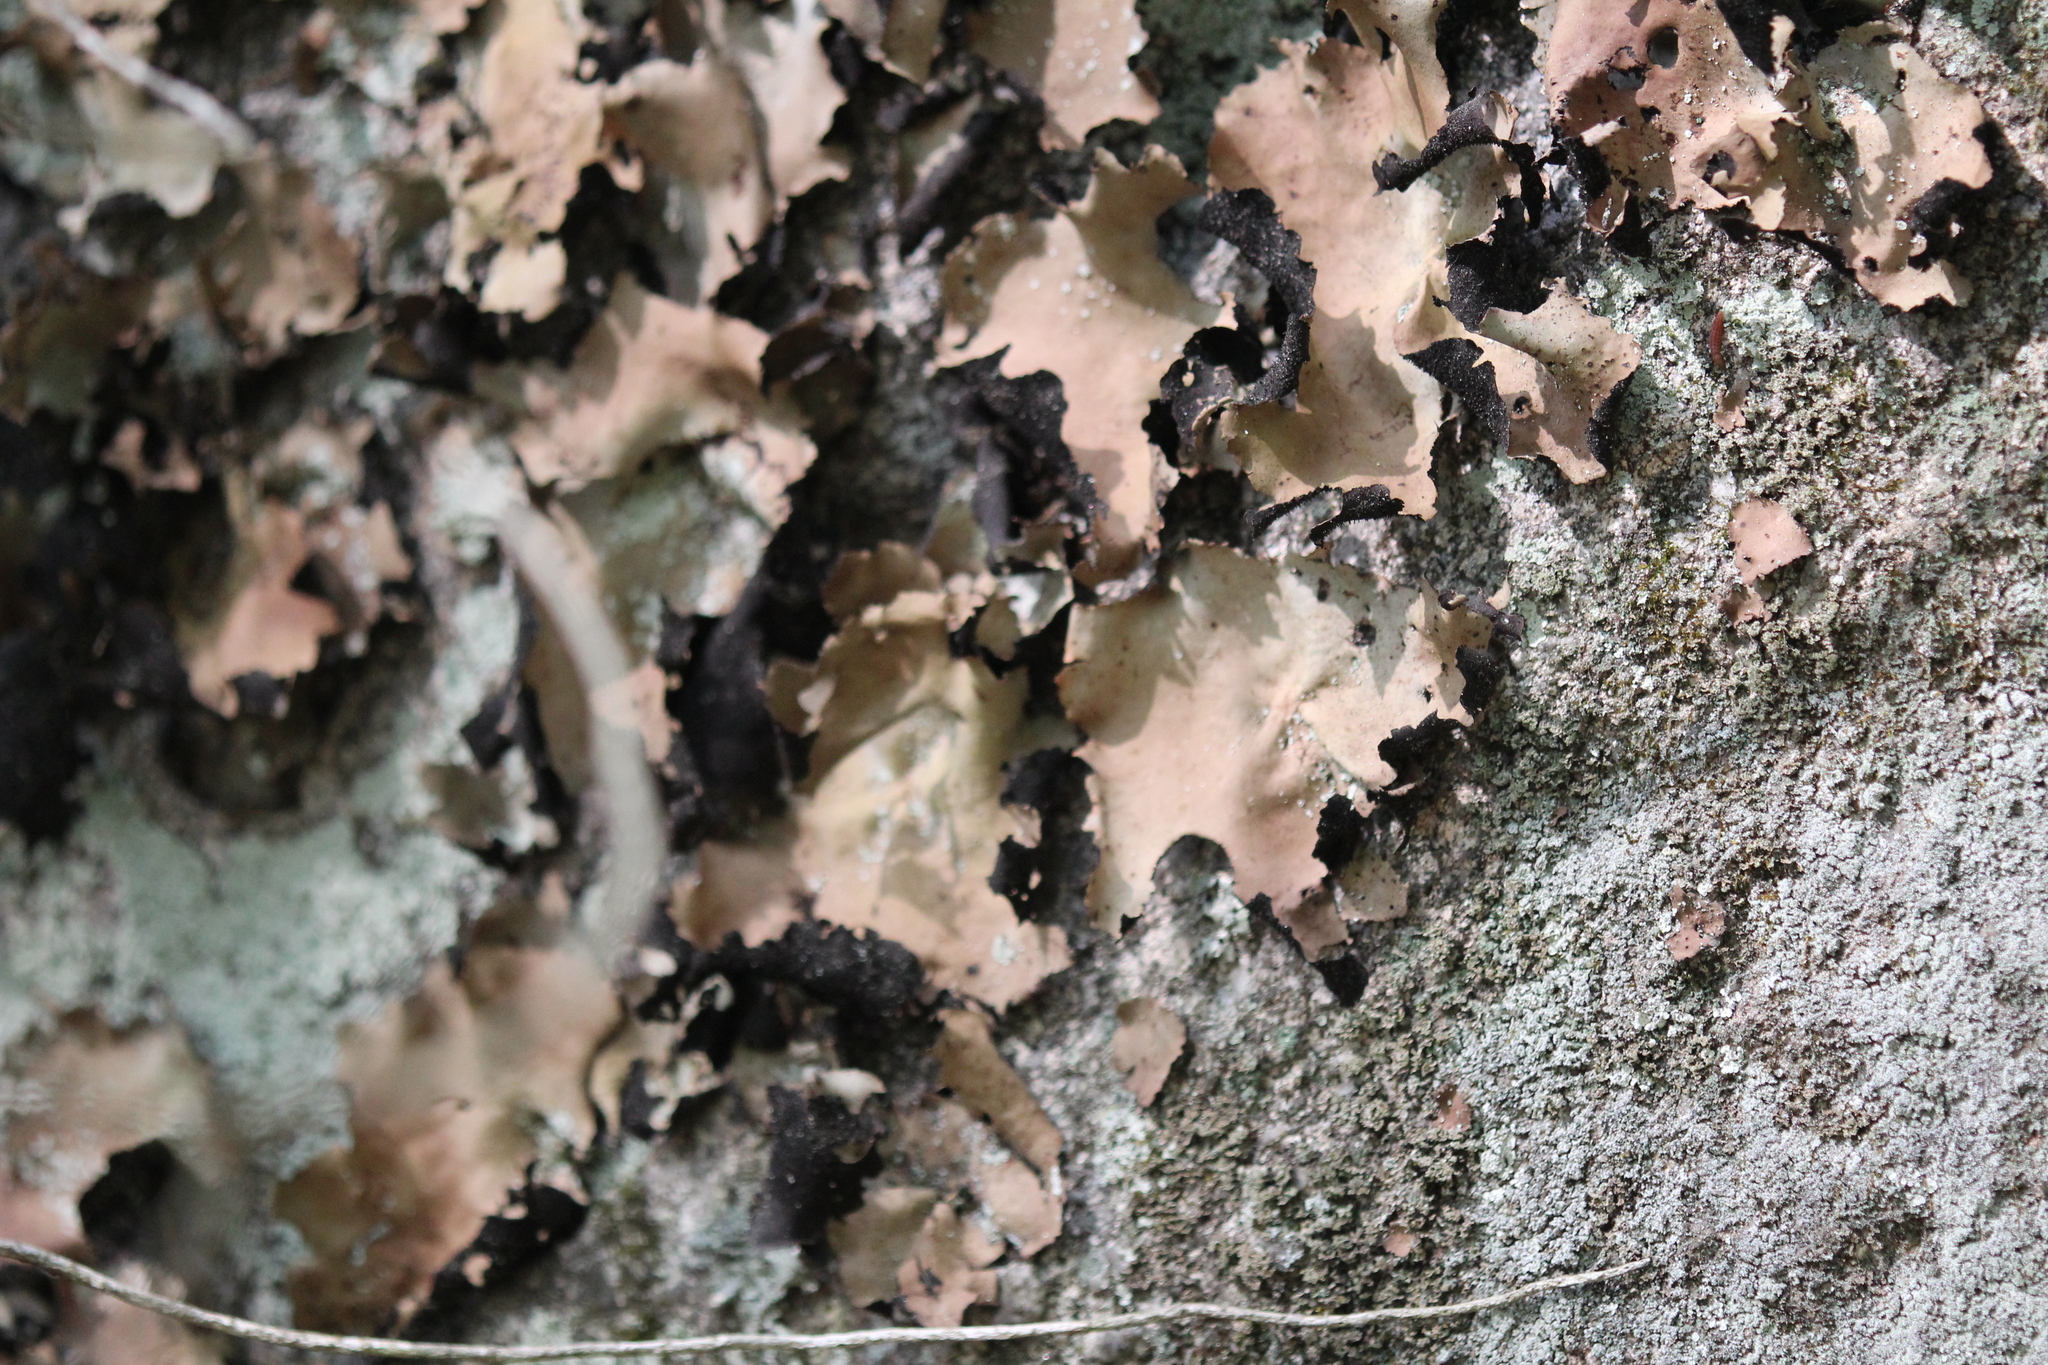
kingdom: Fungi
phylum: Ascomycota
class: Lecanoromycetes
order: Umbilicariales
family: Umbilicariaceae
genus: Umbilicaria
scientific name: Umbilicaria mammulata
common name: Smooth rock tripe
